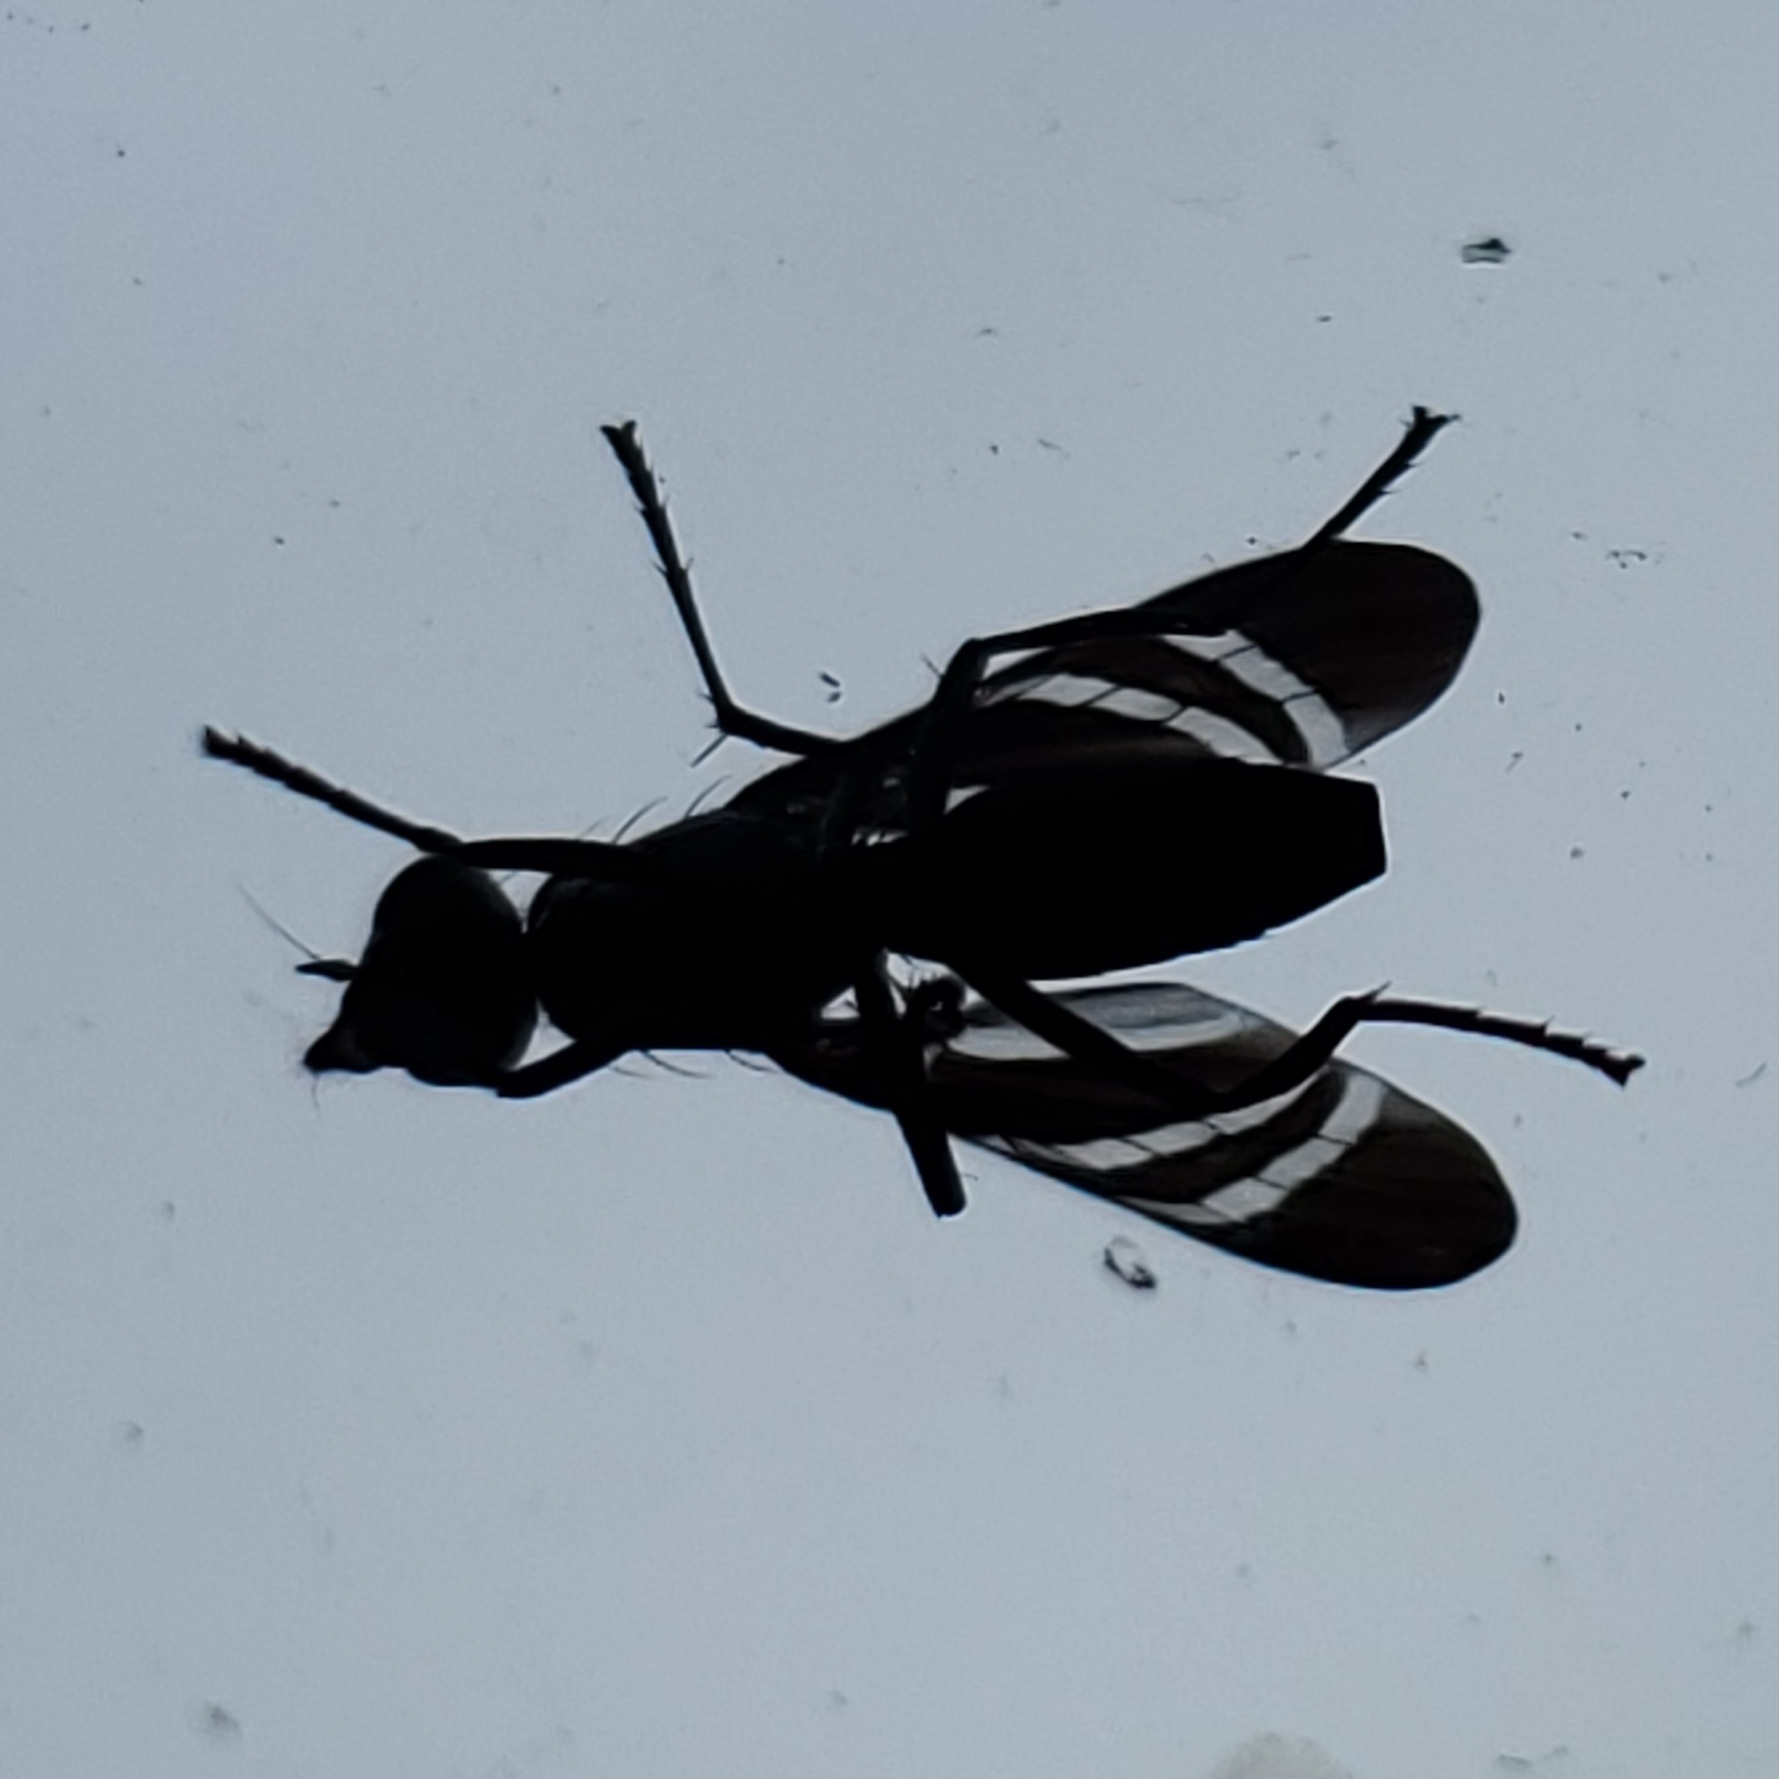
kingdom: Animalia
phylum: Arthropoda
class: Insecta
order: Diptera
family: Ulidiidae
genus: Tritoxa
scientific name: Tritoxa incurva
